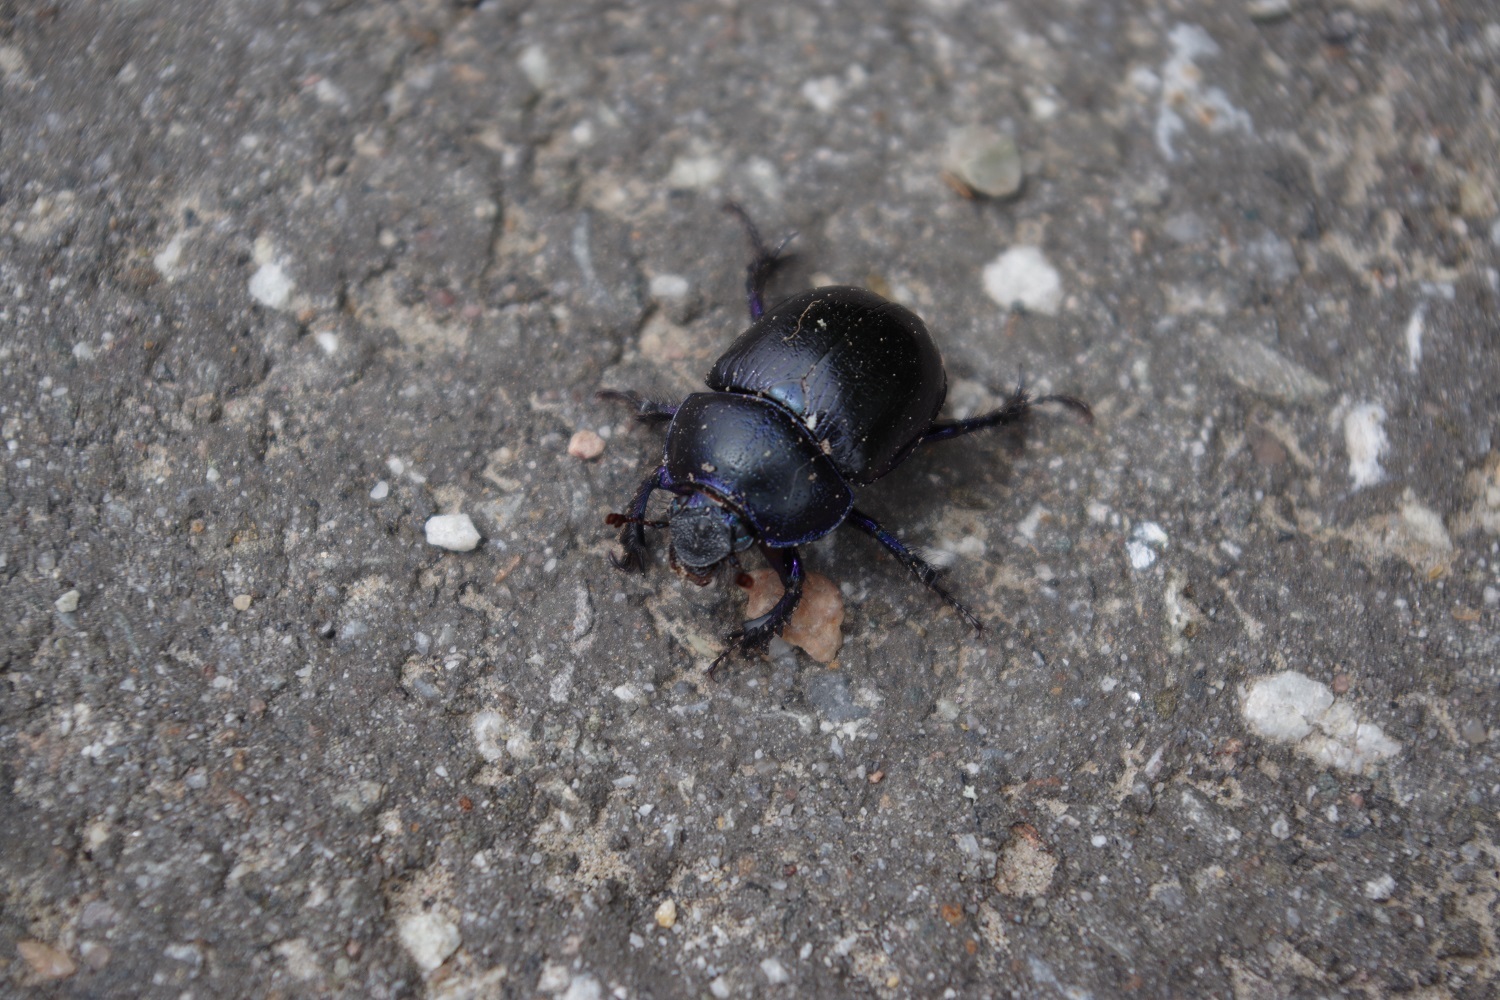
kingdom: Animalia
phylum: Arthropoda
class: Insecta
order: Coleoptera
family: Geotrupidae
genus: Anoplotrupes
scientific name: Anoplotrupes stercorosus
